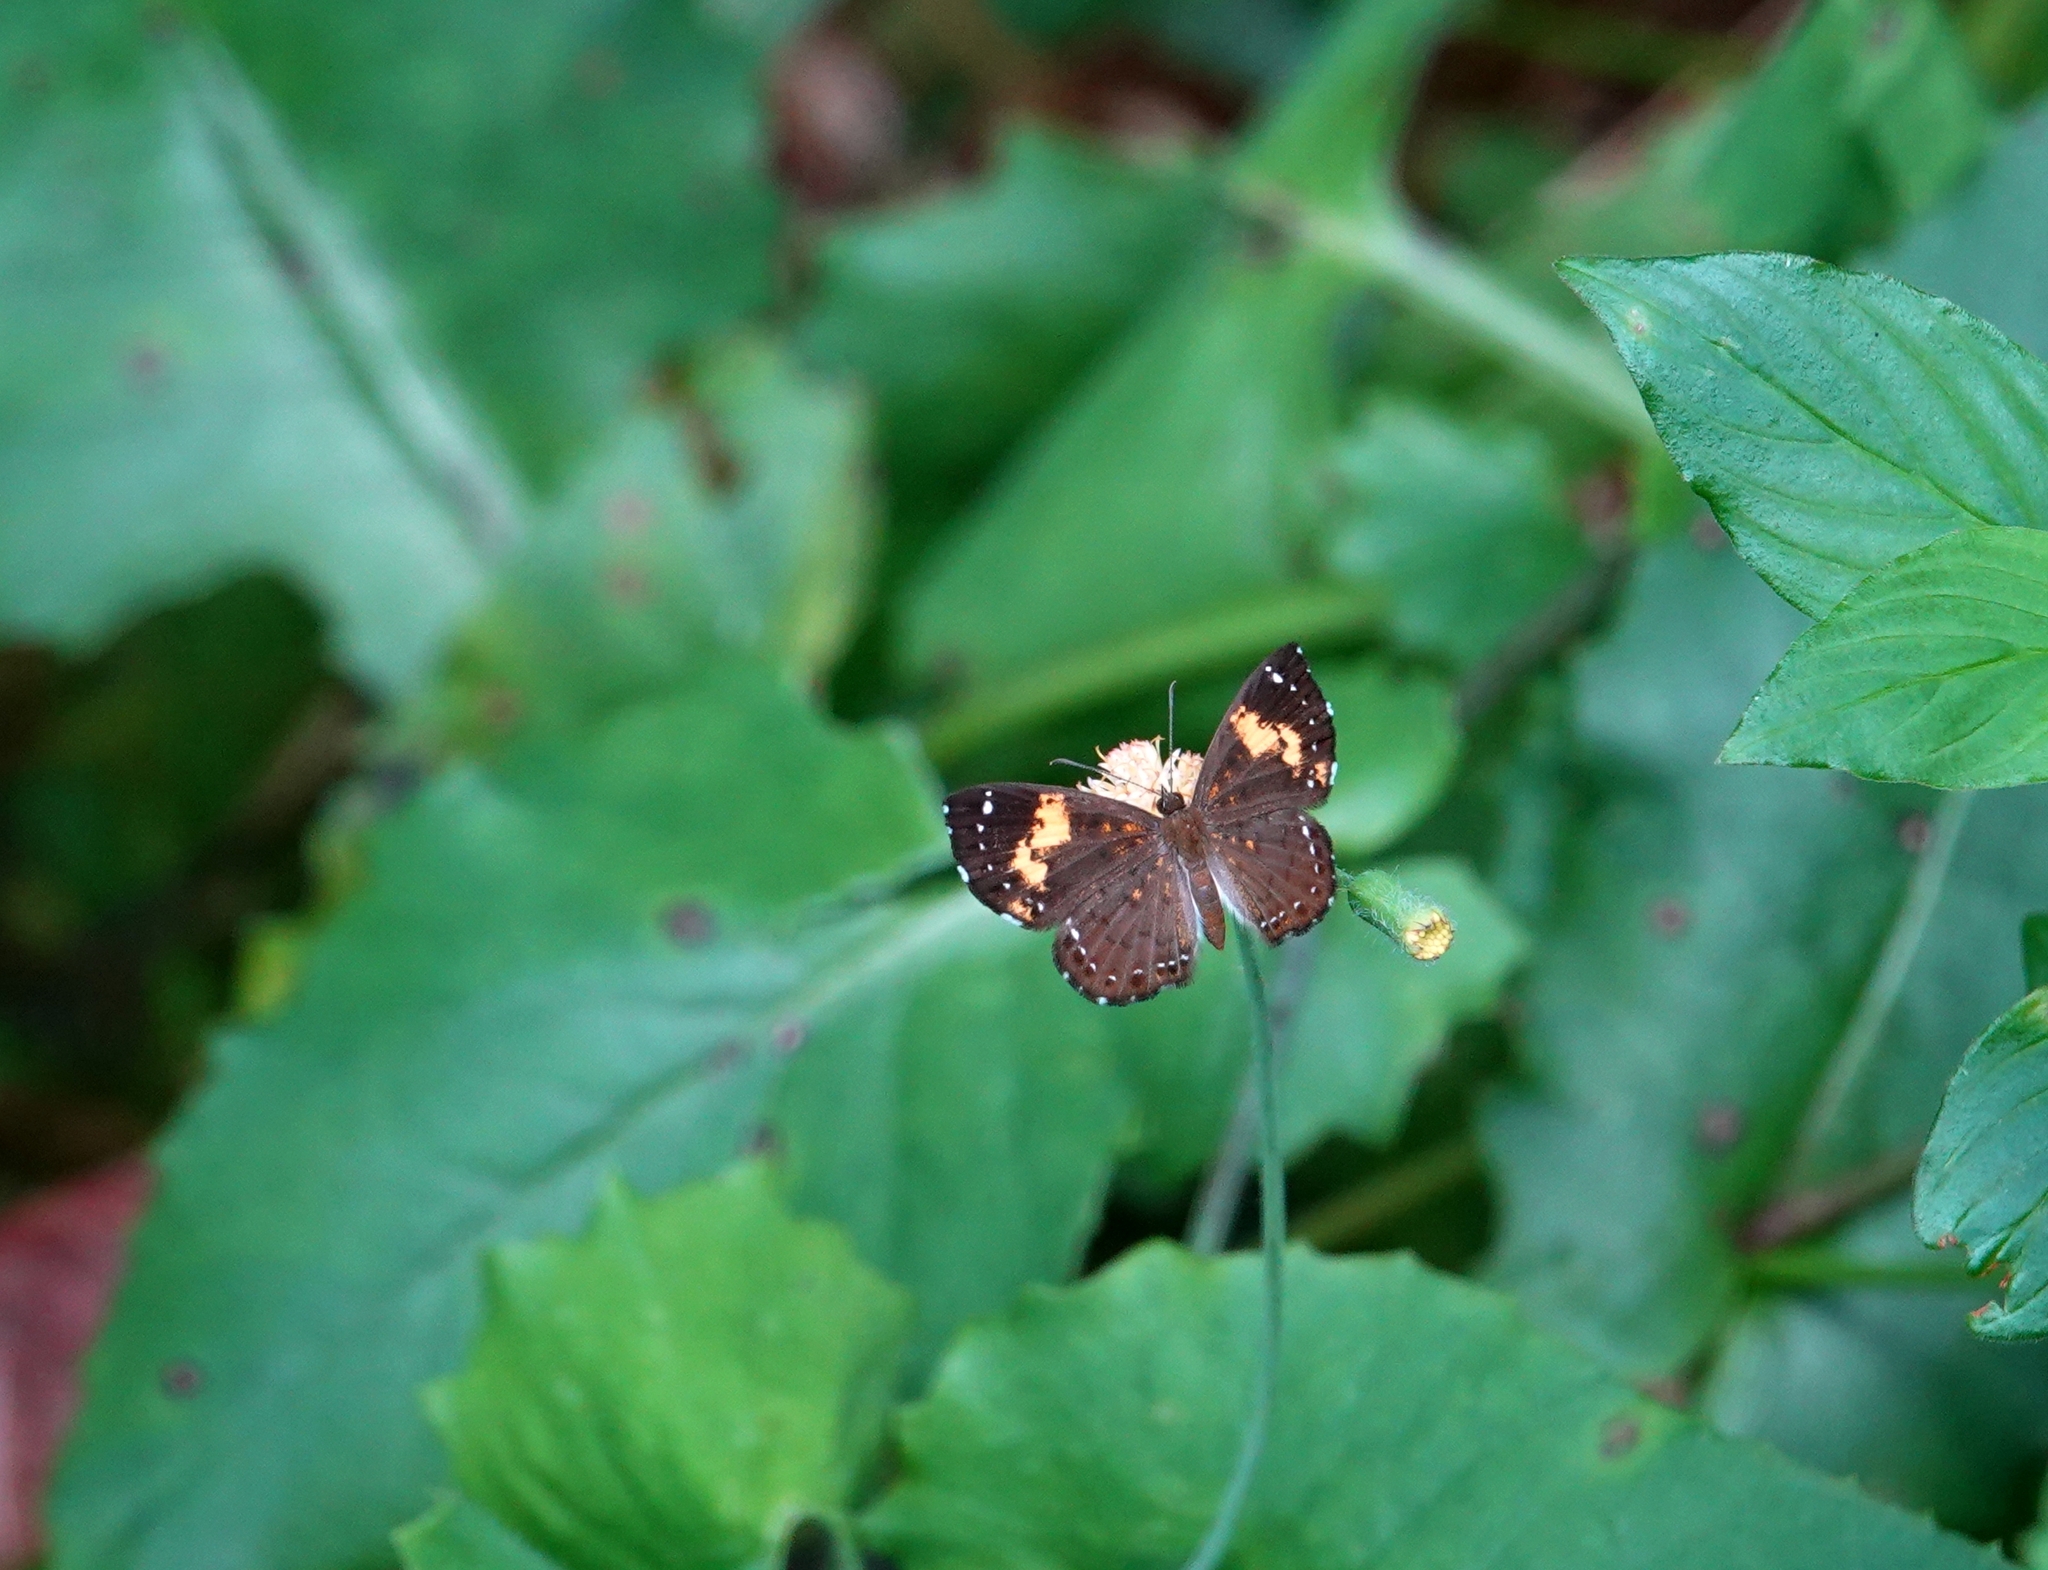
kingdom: Animalia
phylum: Arthropoda
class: Insecta
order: Lepidoptera
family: Riodinidae
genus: Polystichtis
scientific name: Polystichtis emylius
